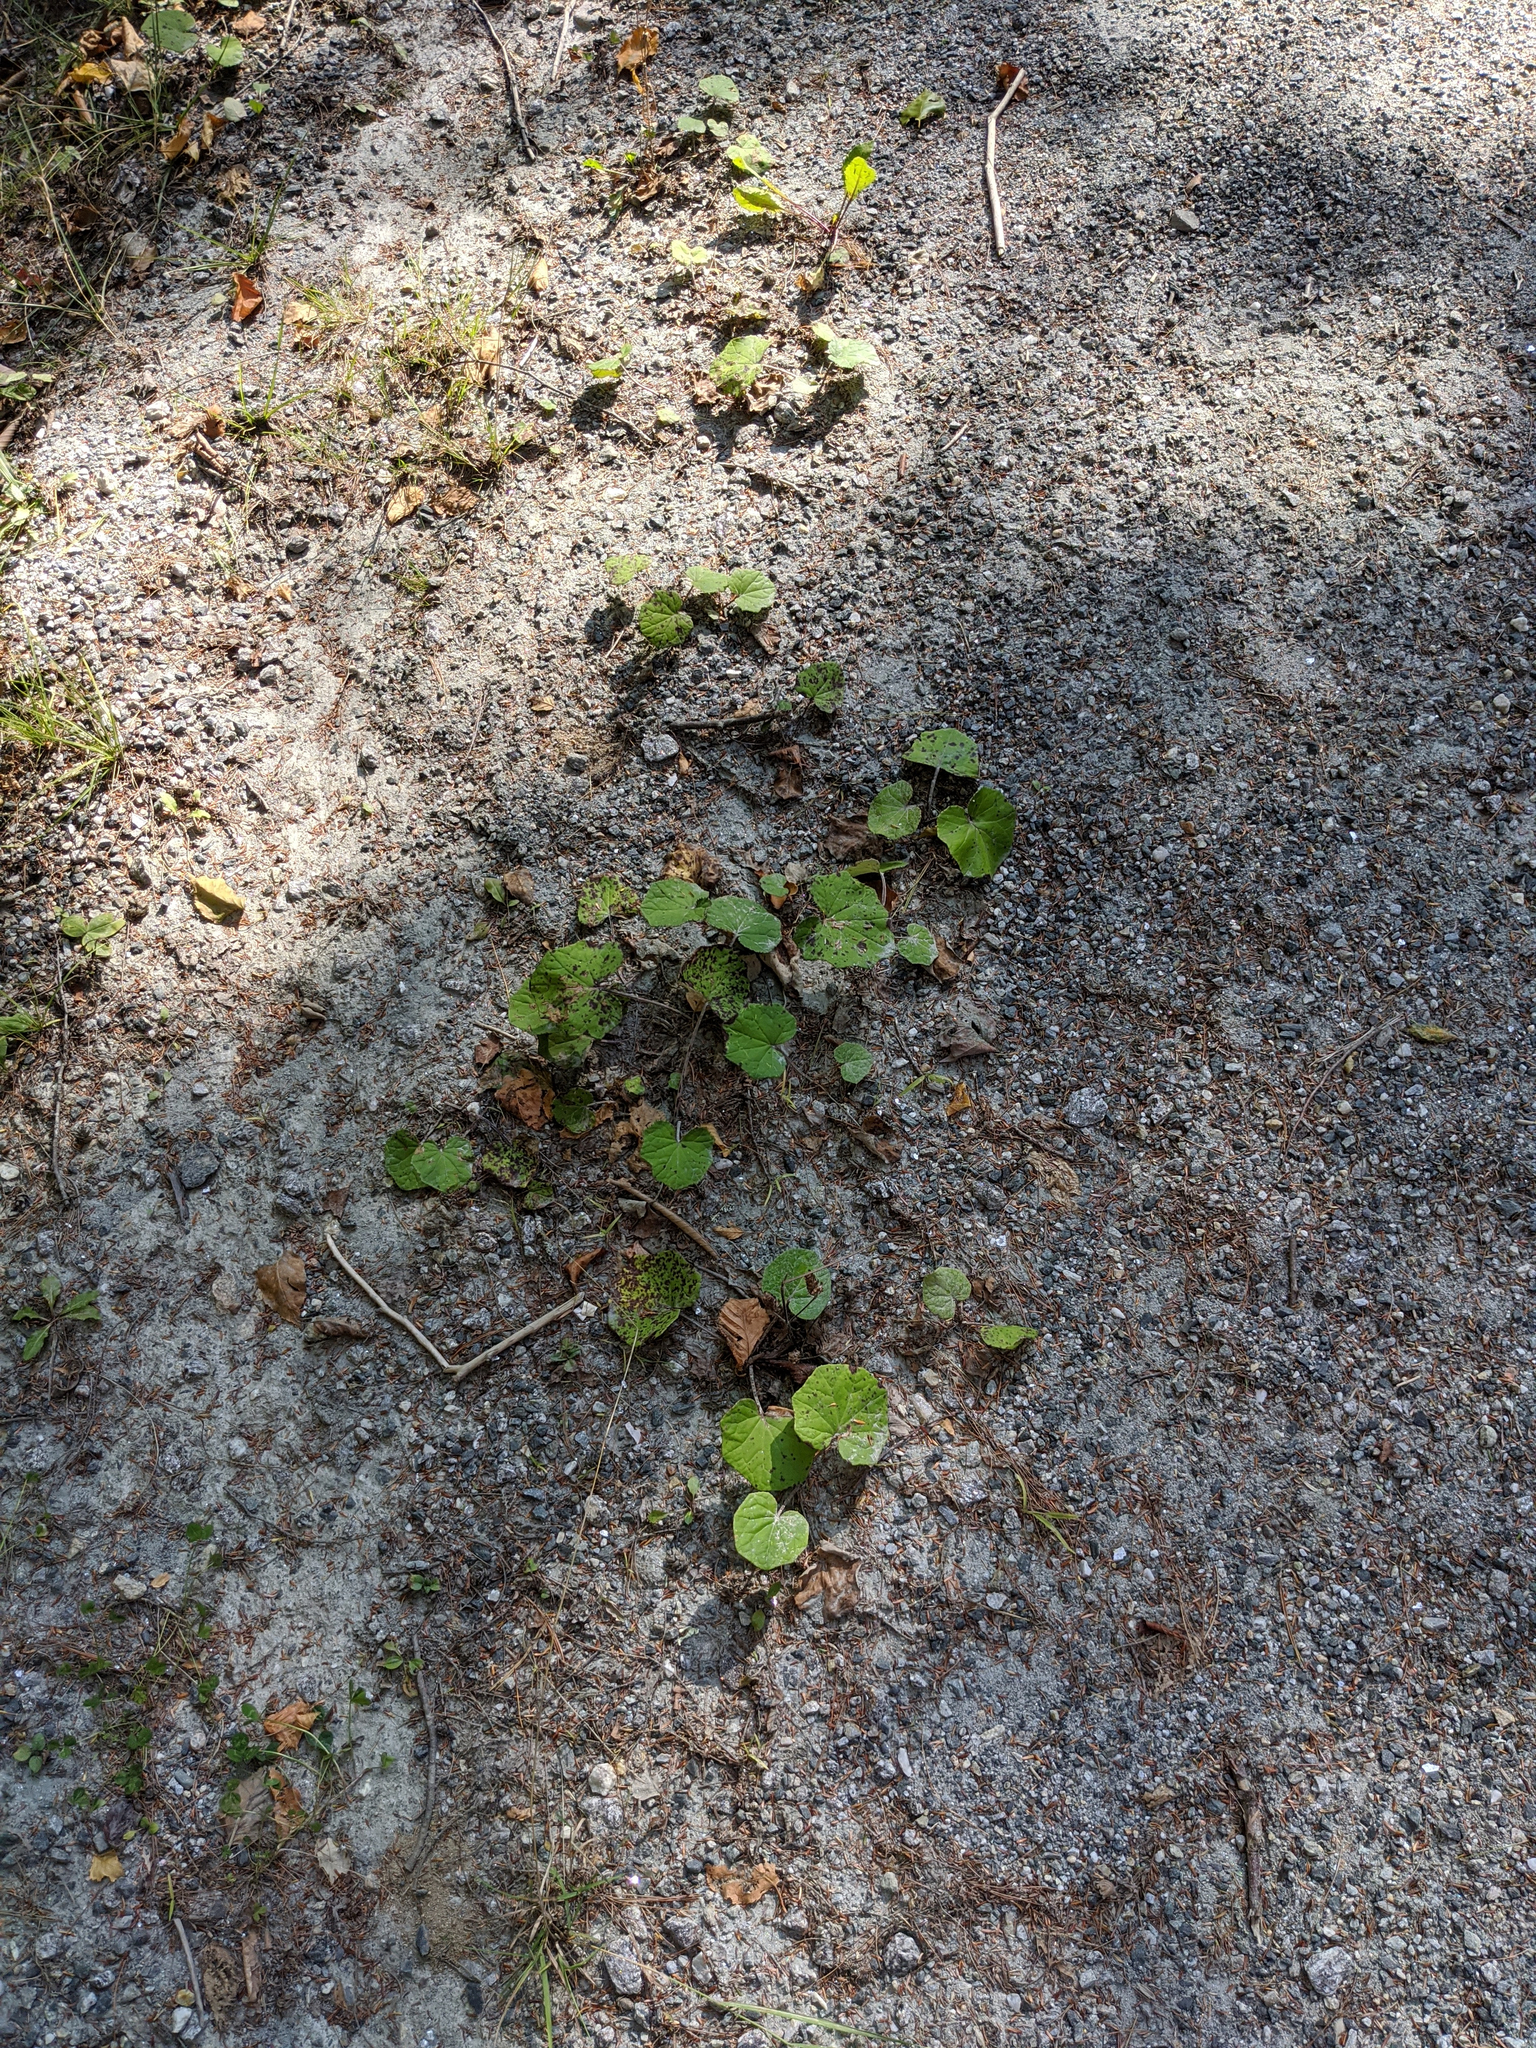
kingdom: Plantae
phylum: Tracheophyta
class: Magnoliopsida
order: Asterales
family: Asteraceae
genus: Tussilago
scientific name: Tussilago farfara
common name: Coltsfoot
